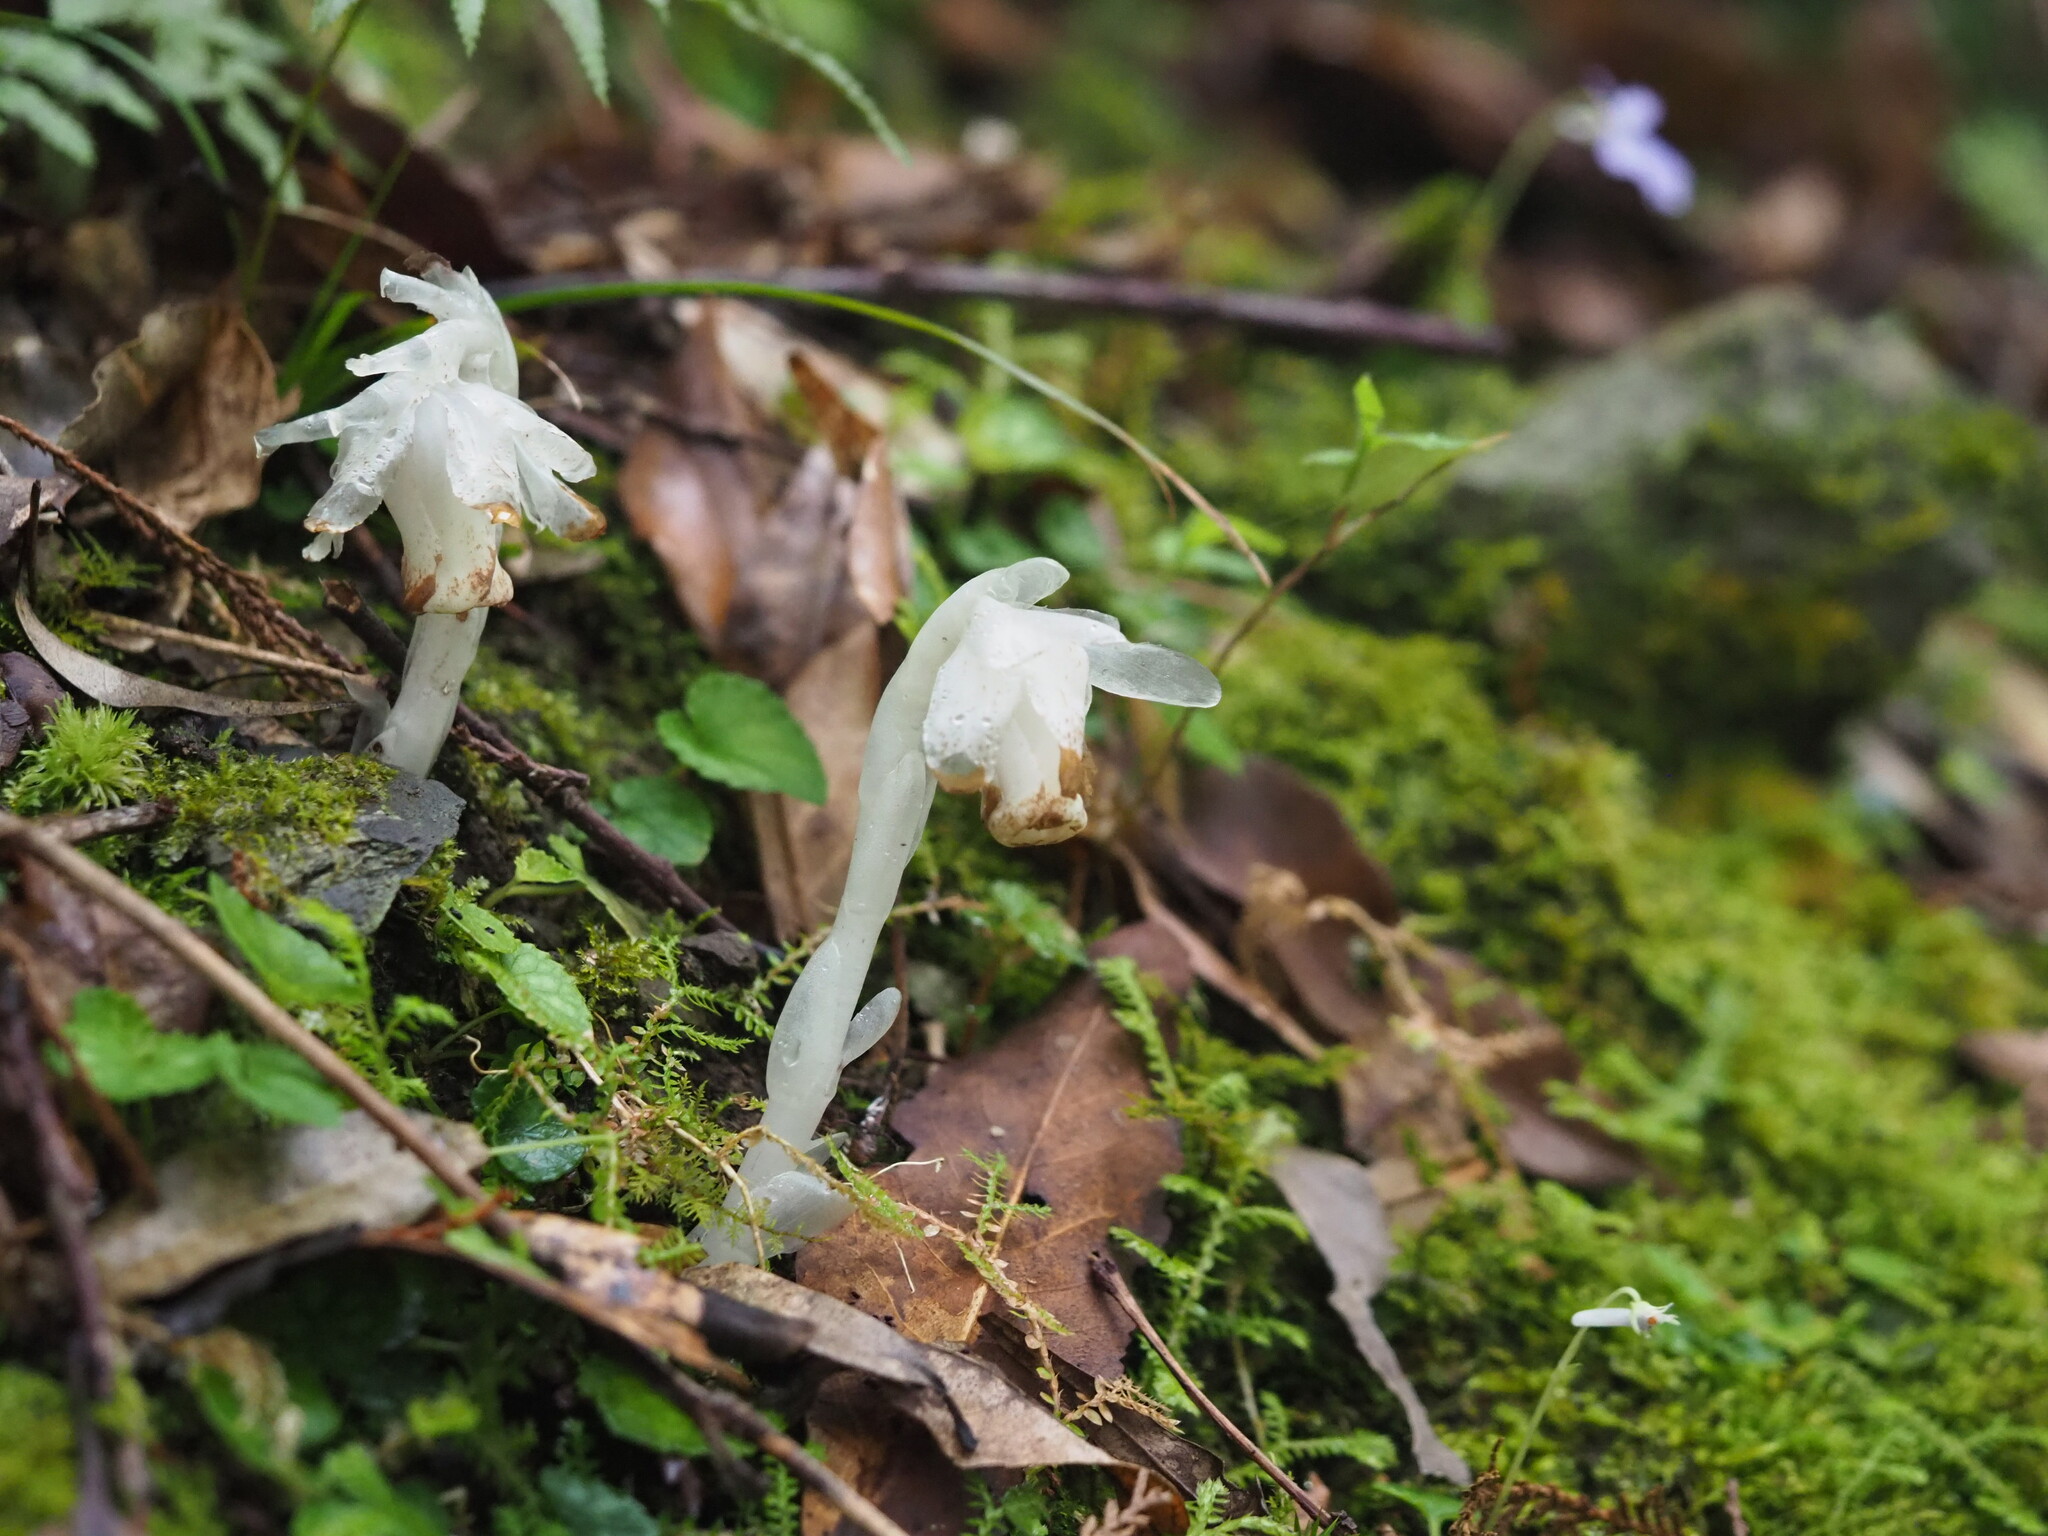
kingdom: Plantae
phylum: Tracheophyta
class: Magnoliopsida
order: Ericales
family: Ericaceae
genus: Monotropastrum
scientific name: Monotropastrum humile
